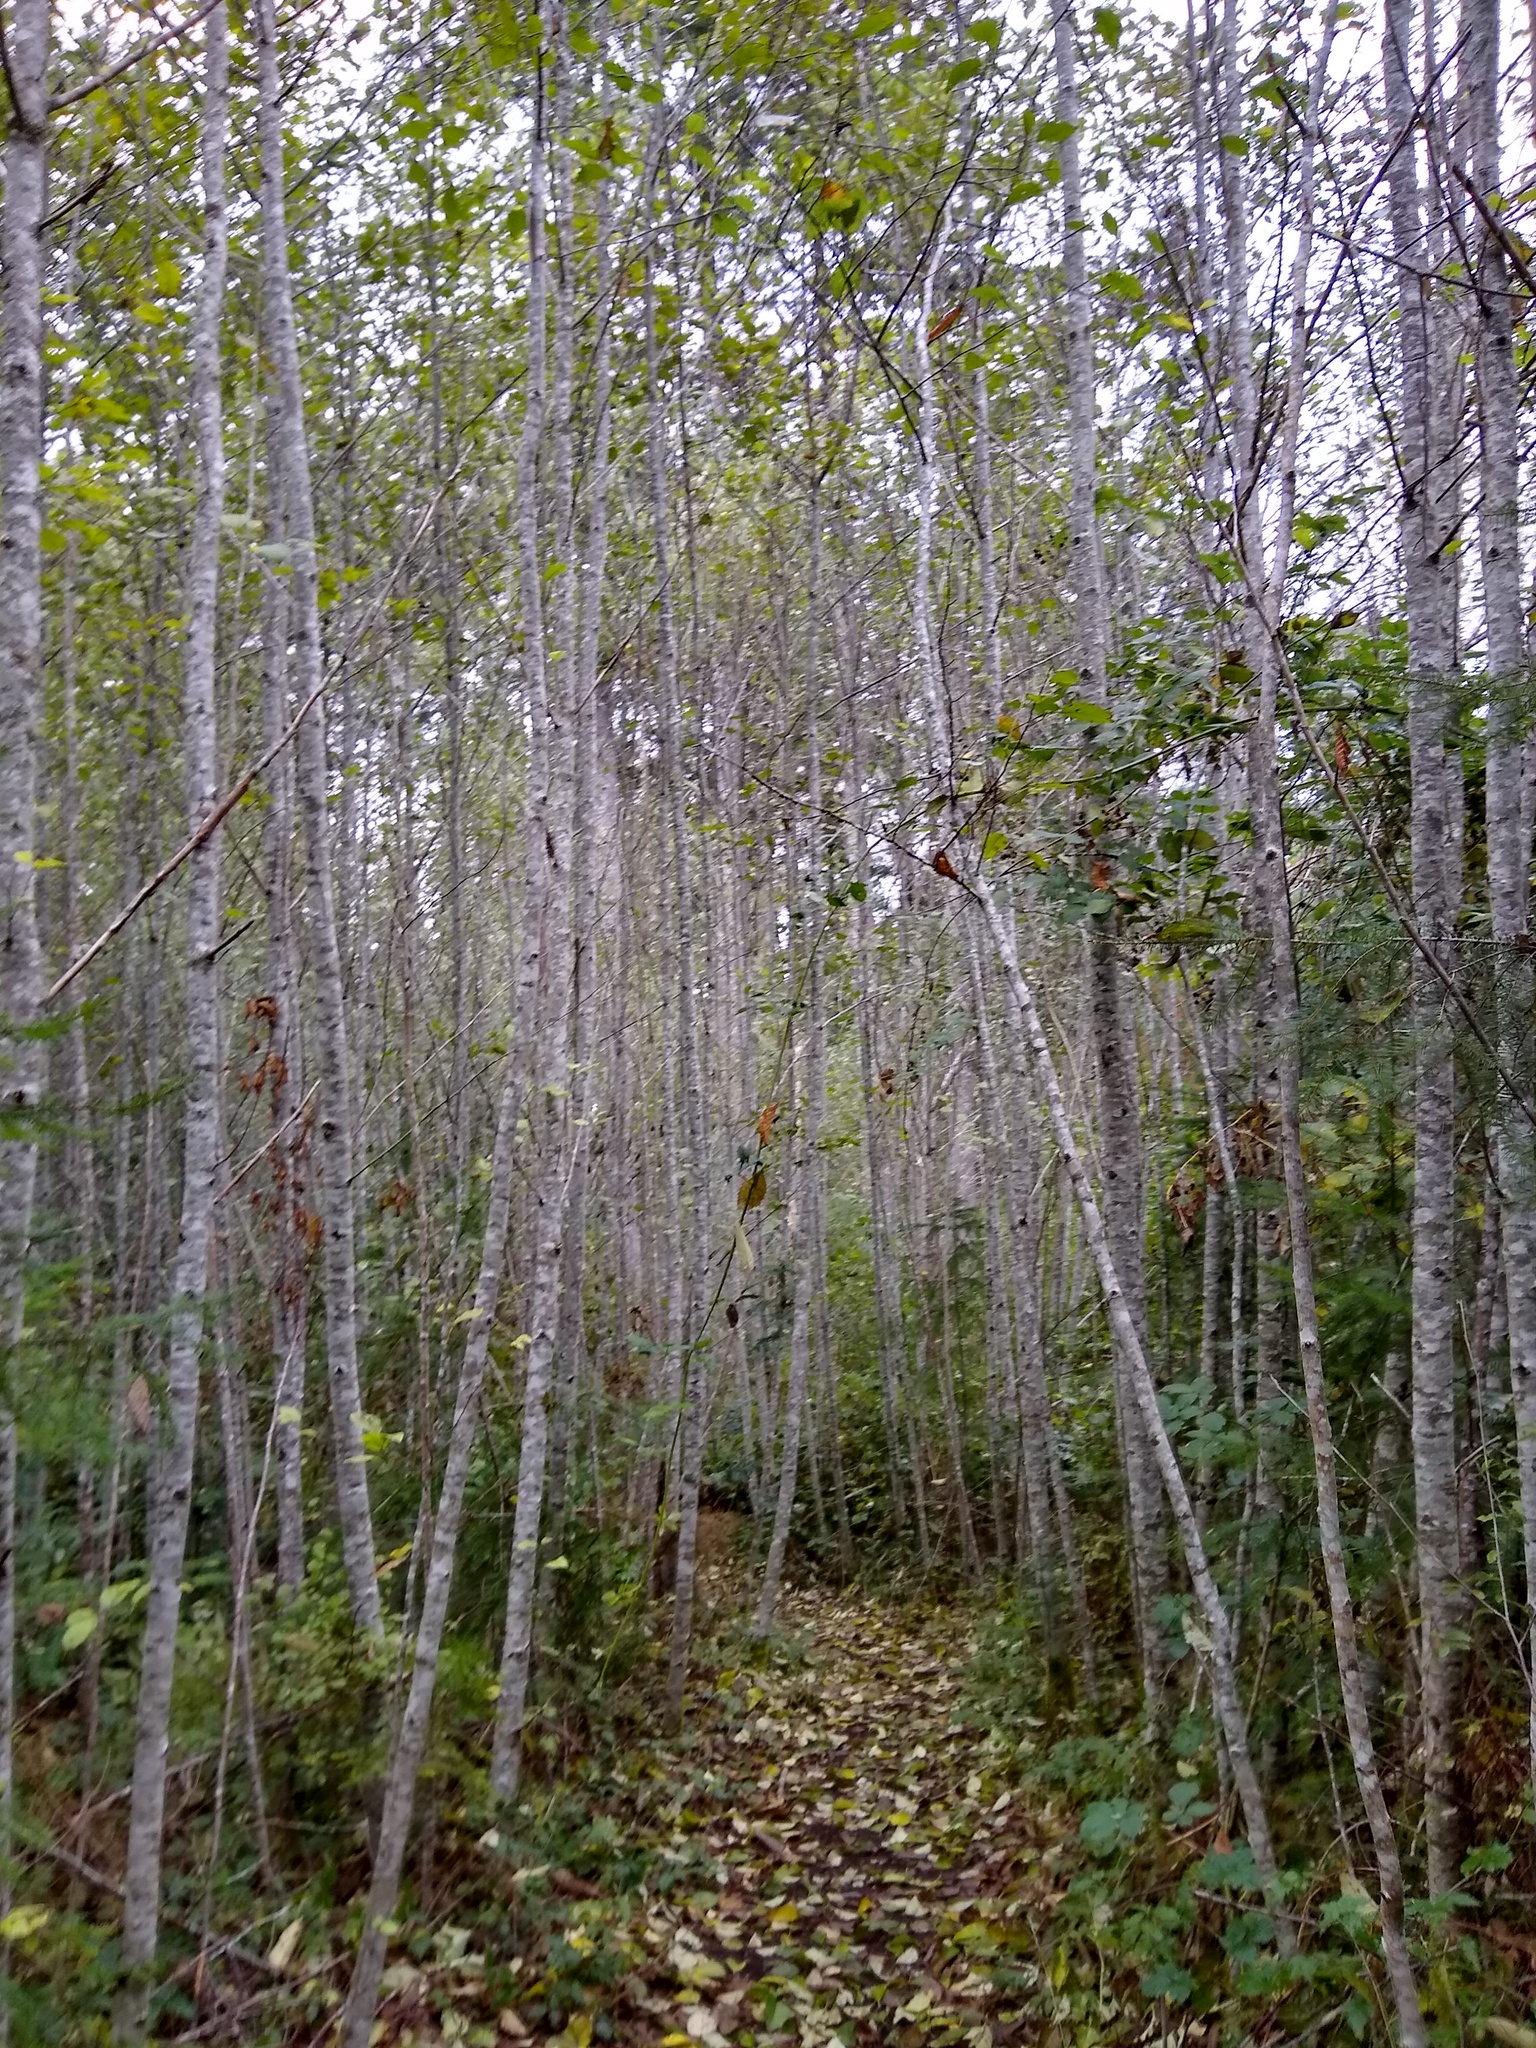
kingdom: Plantae
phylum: Tracheophyta
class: Magnoliopsida
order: Fagales
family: Betulaceae
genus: Alnus
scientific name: Alnus rubra
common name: Red alder
